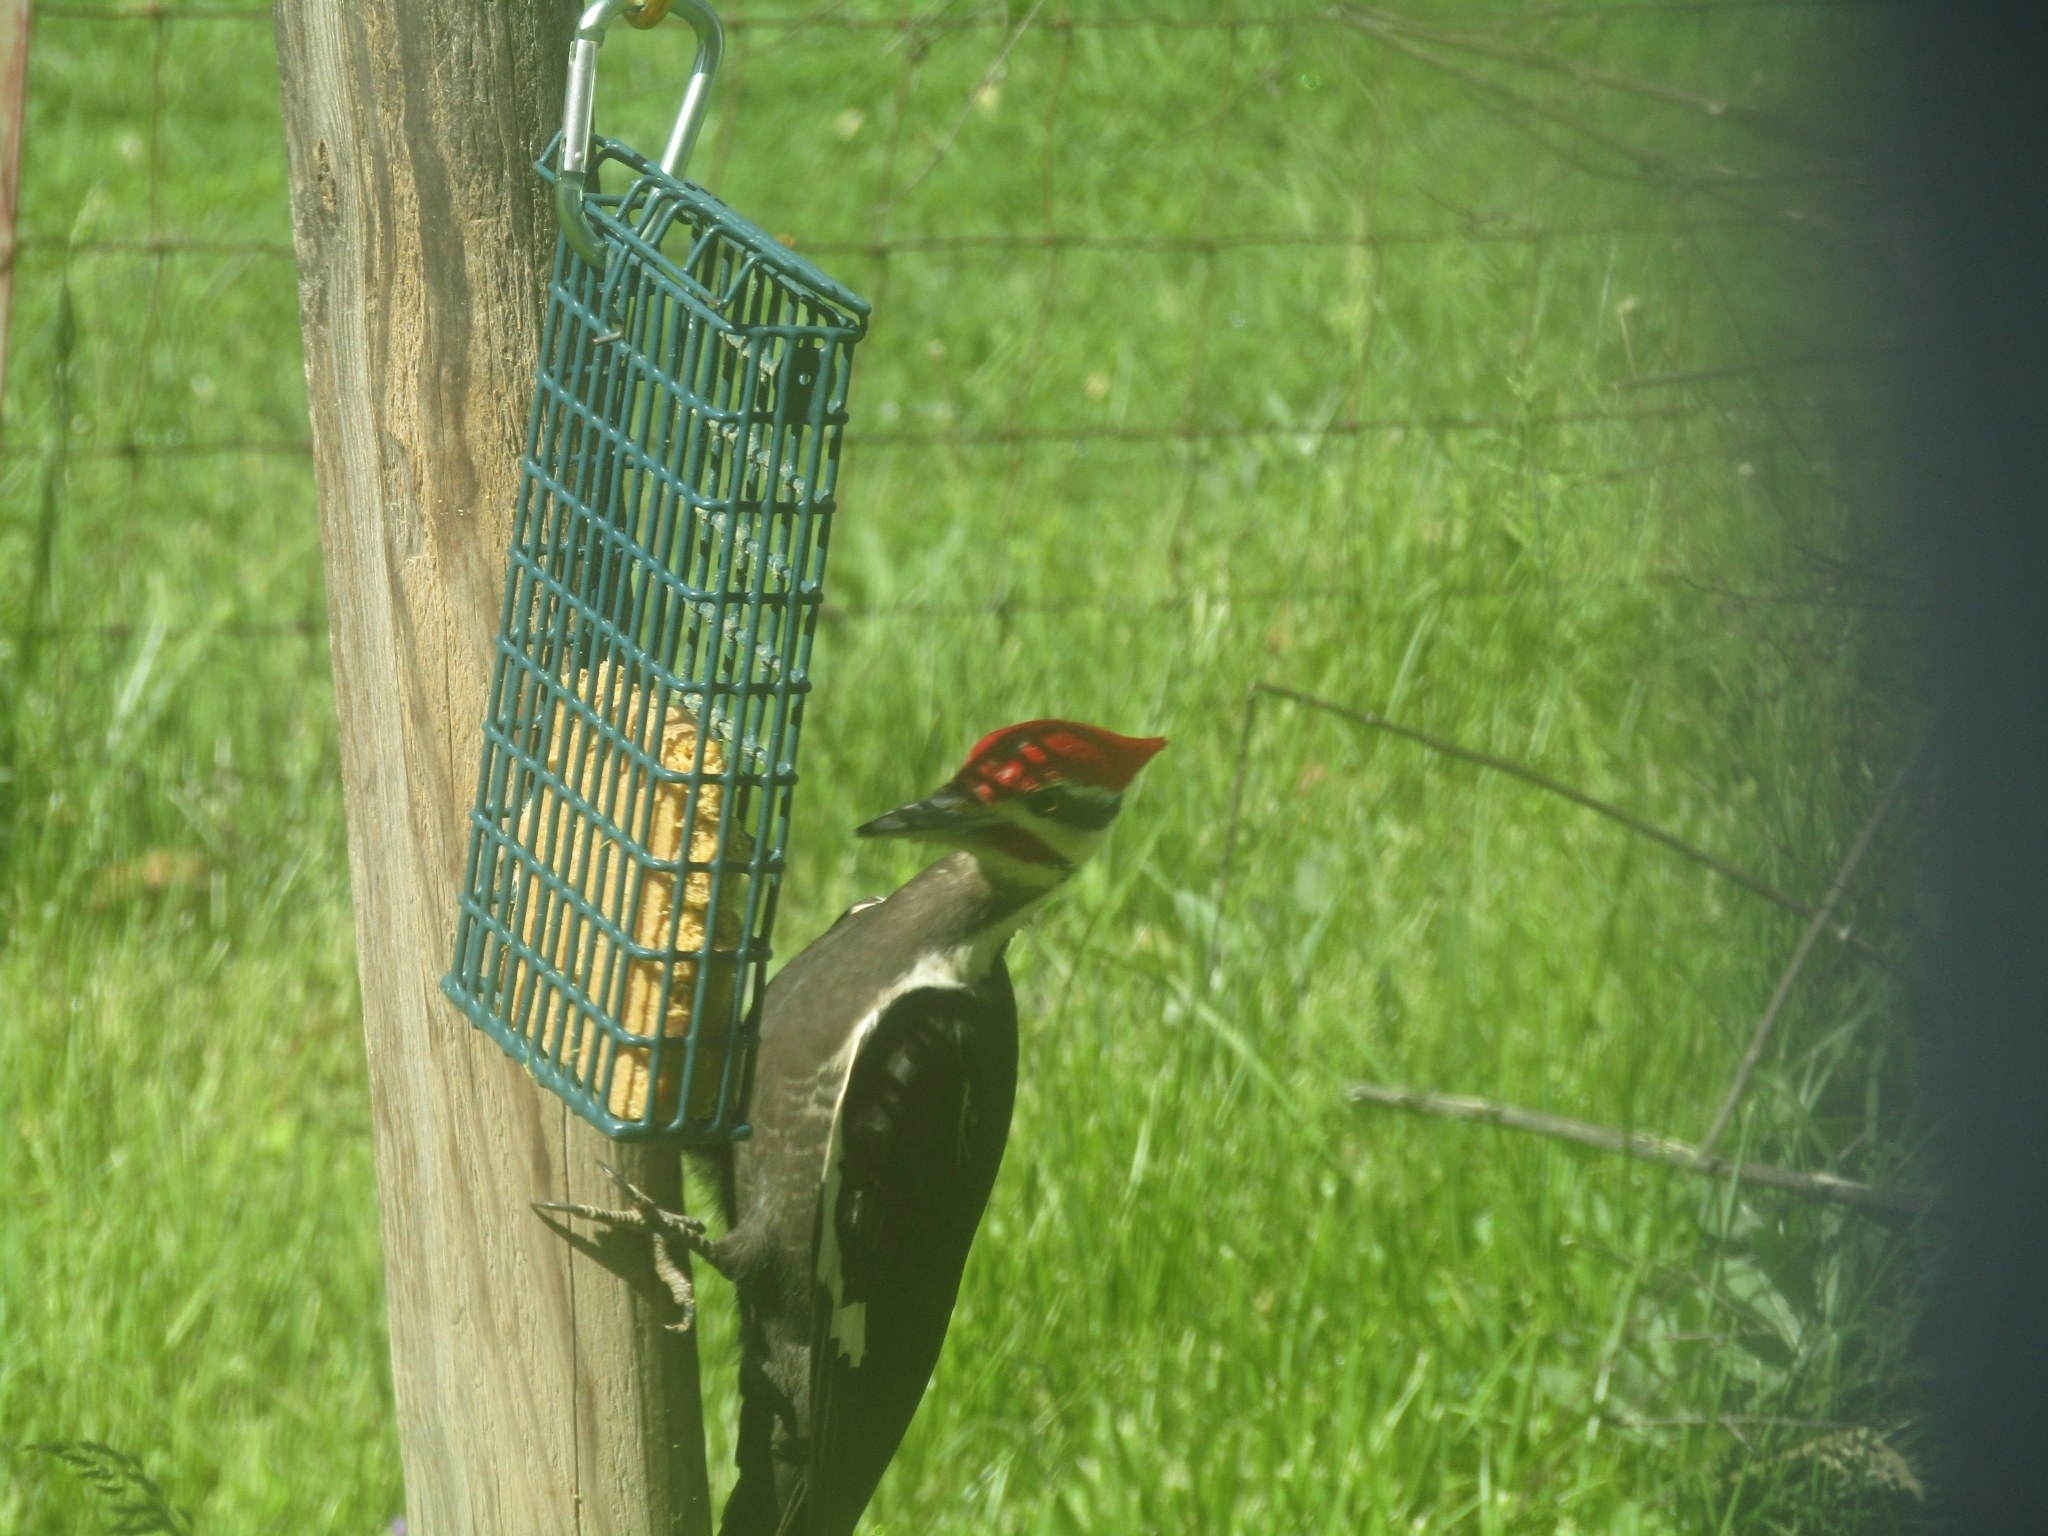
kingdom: Animalia
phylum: Chordata
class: Aves
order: Piciformes
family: Picidae
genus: Dryocopus
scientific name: Dryocopus pileatus
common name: Pileated woodpecker
